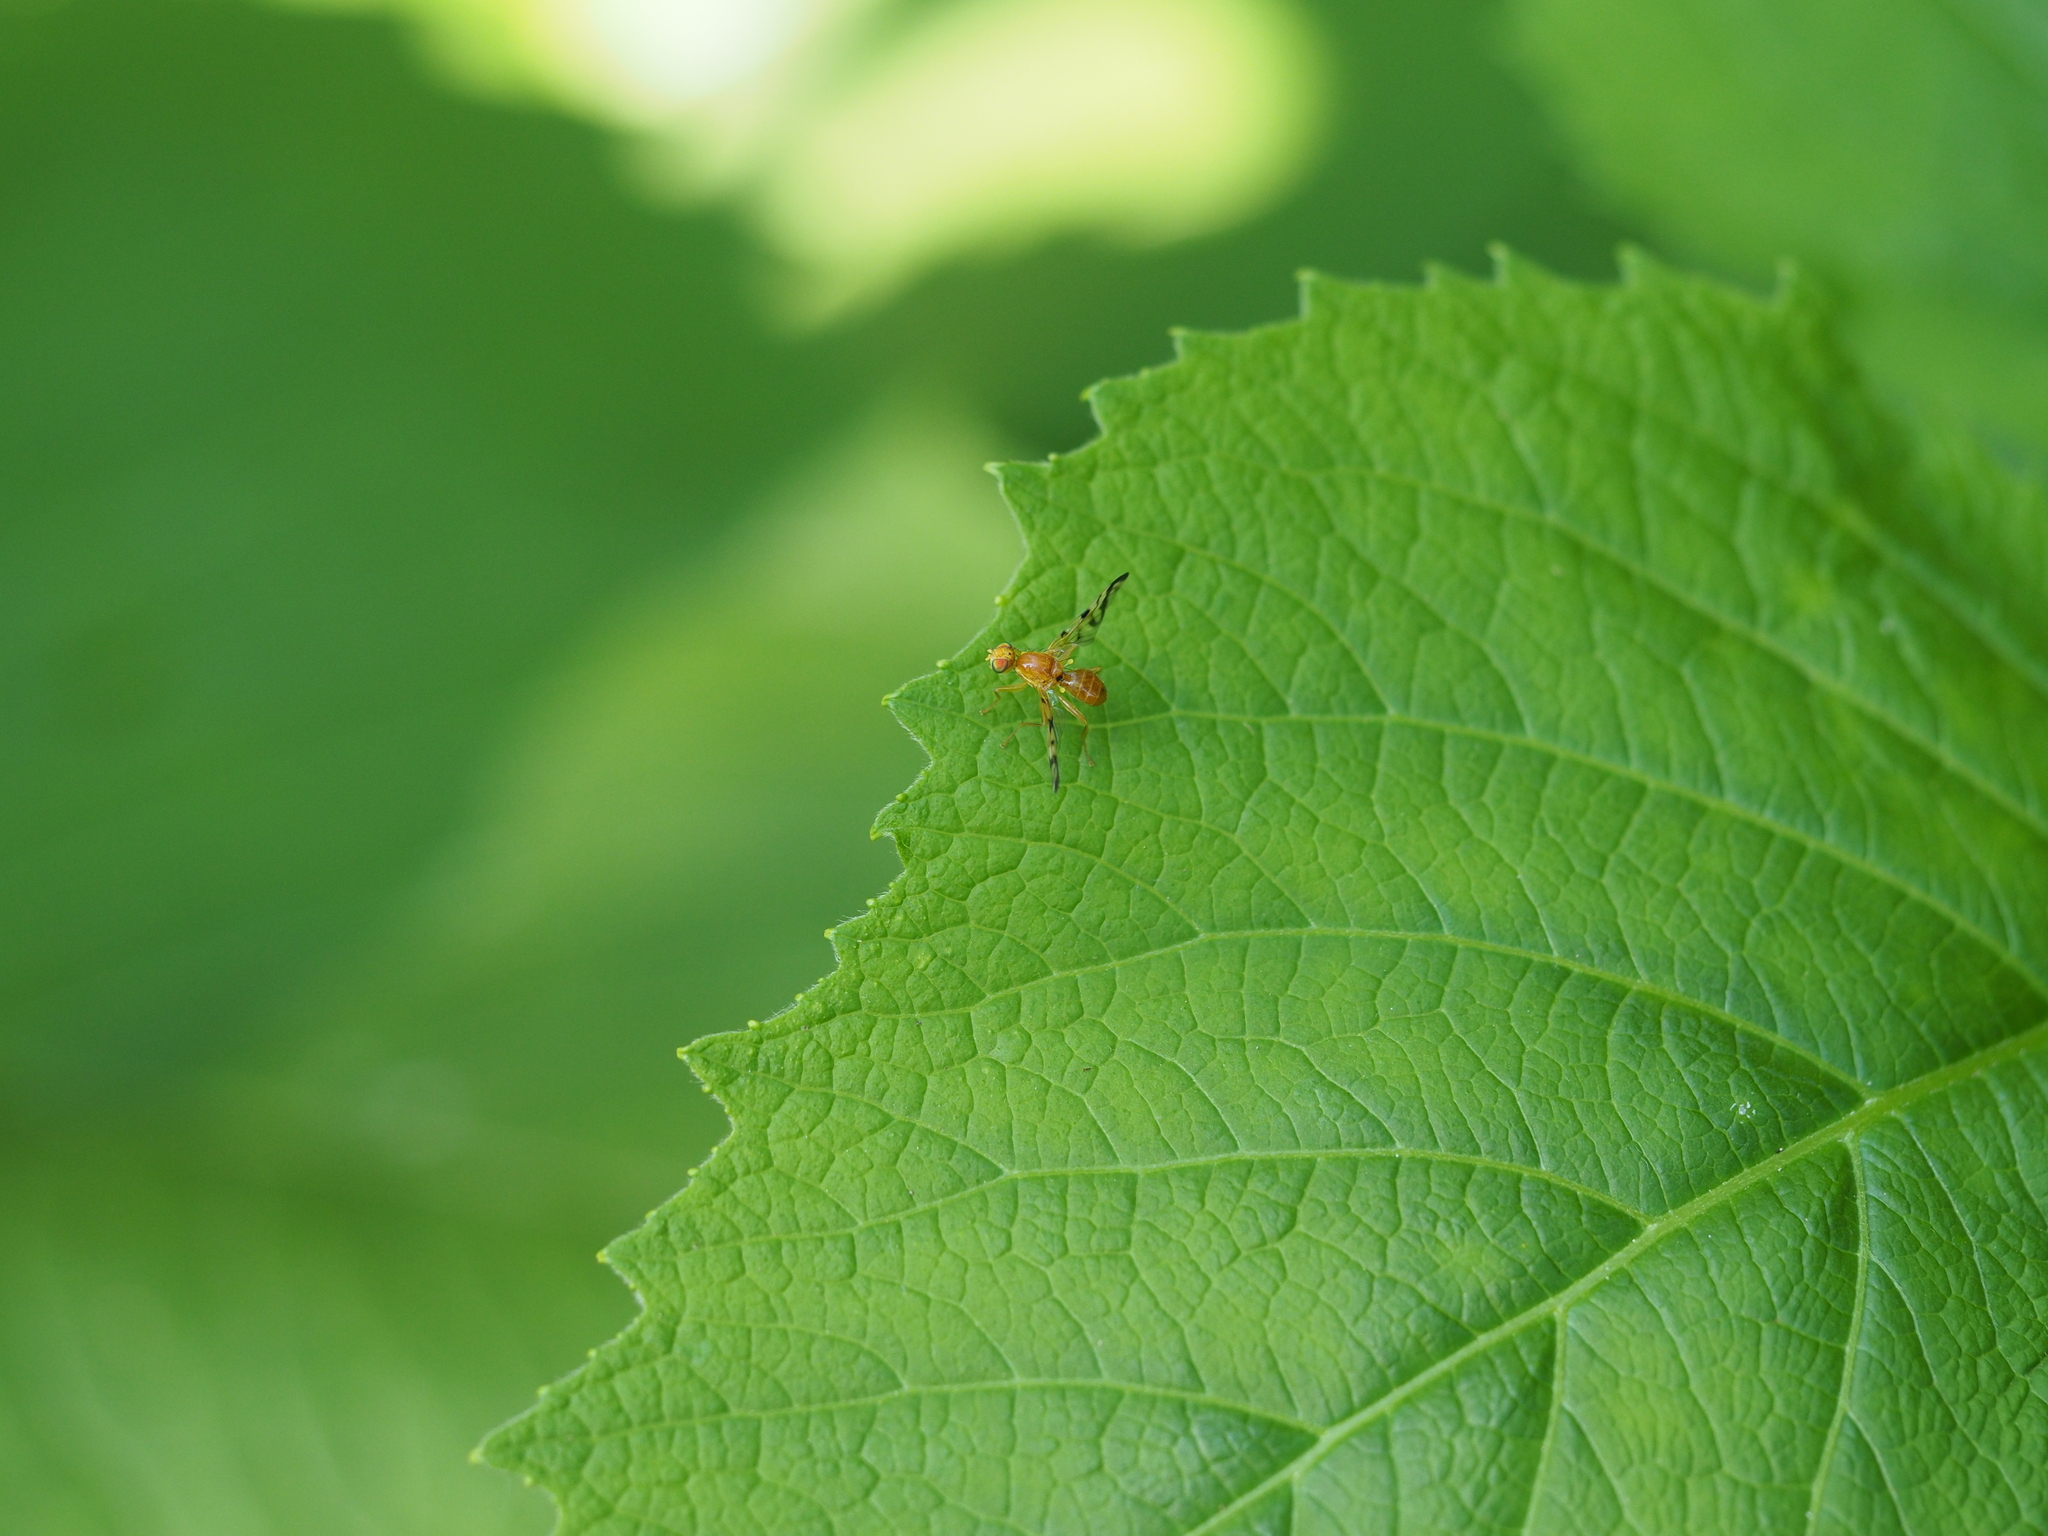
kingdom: Animalia
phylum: Arthropoda
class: Insecta
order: Diptera
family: Tephritidae
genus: Acidia
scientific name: Acidia cognata
